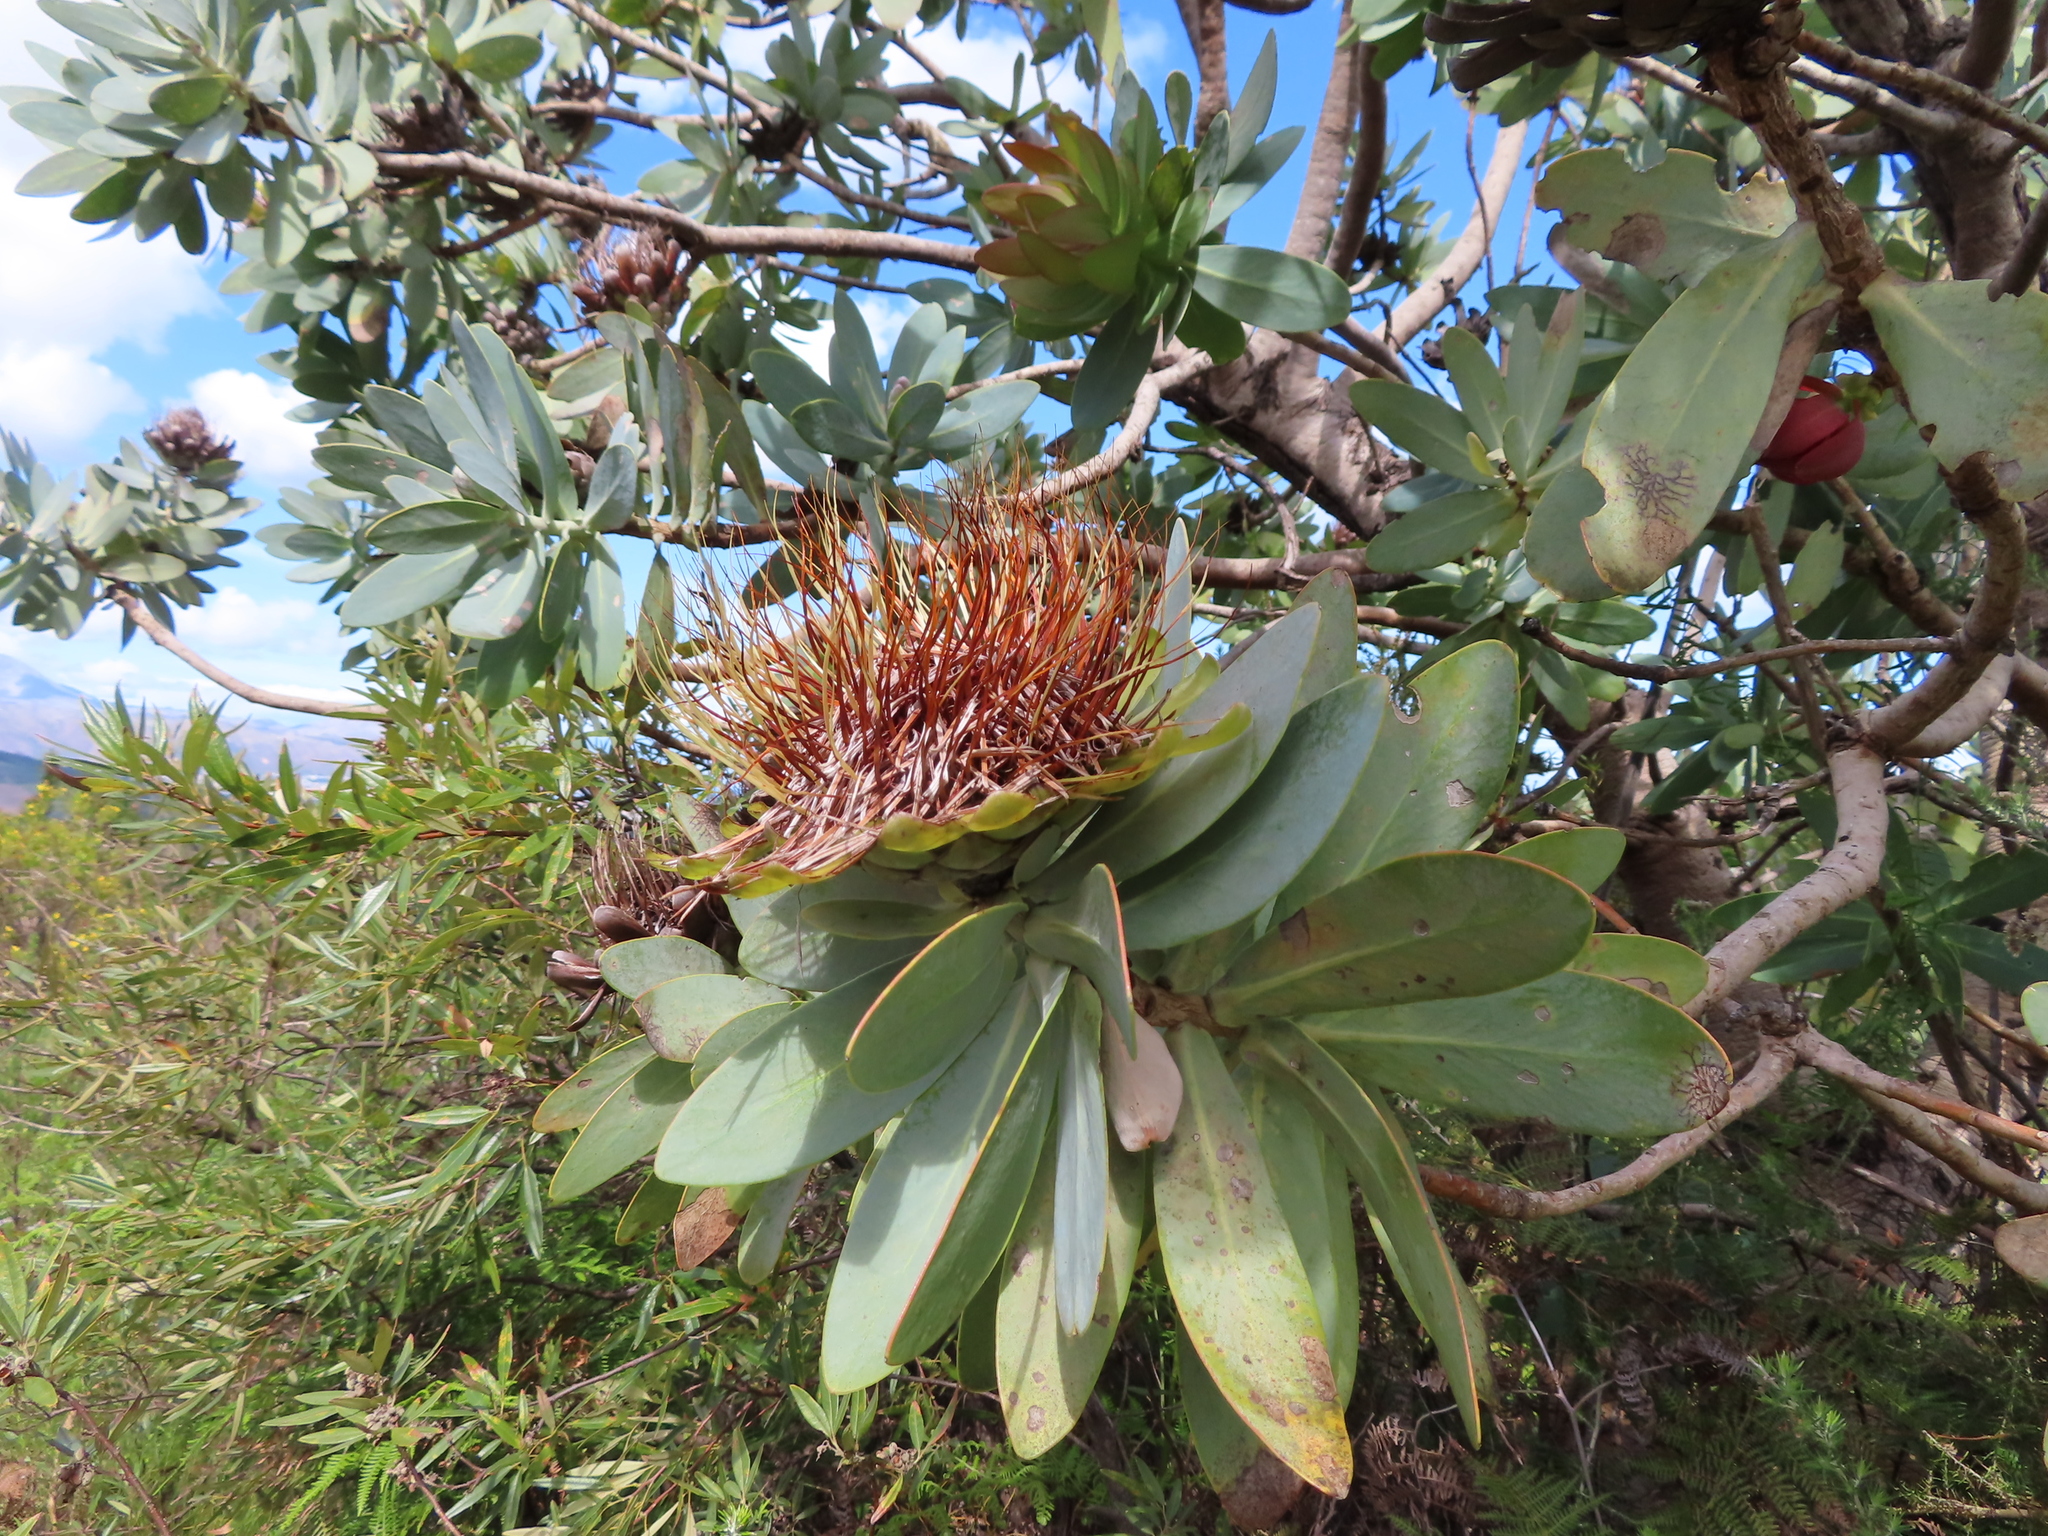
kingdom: Plantae
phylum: Tracheophyta
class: Magnoliopsida
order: Proteales
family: Proteaceae
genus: Protea
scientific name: Protea nitida
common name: Tree protea
